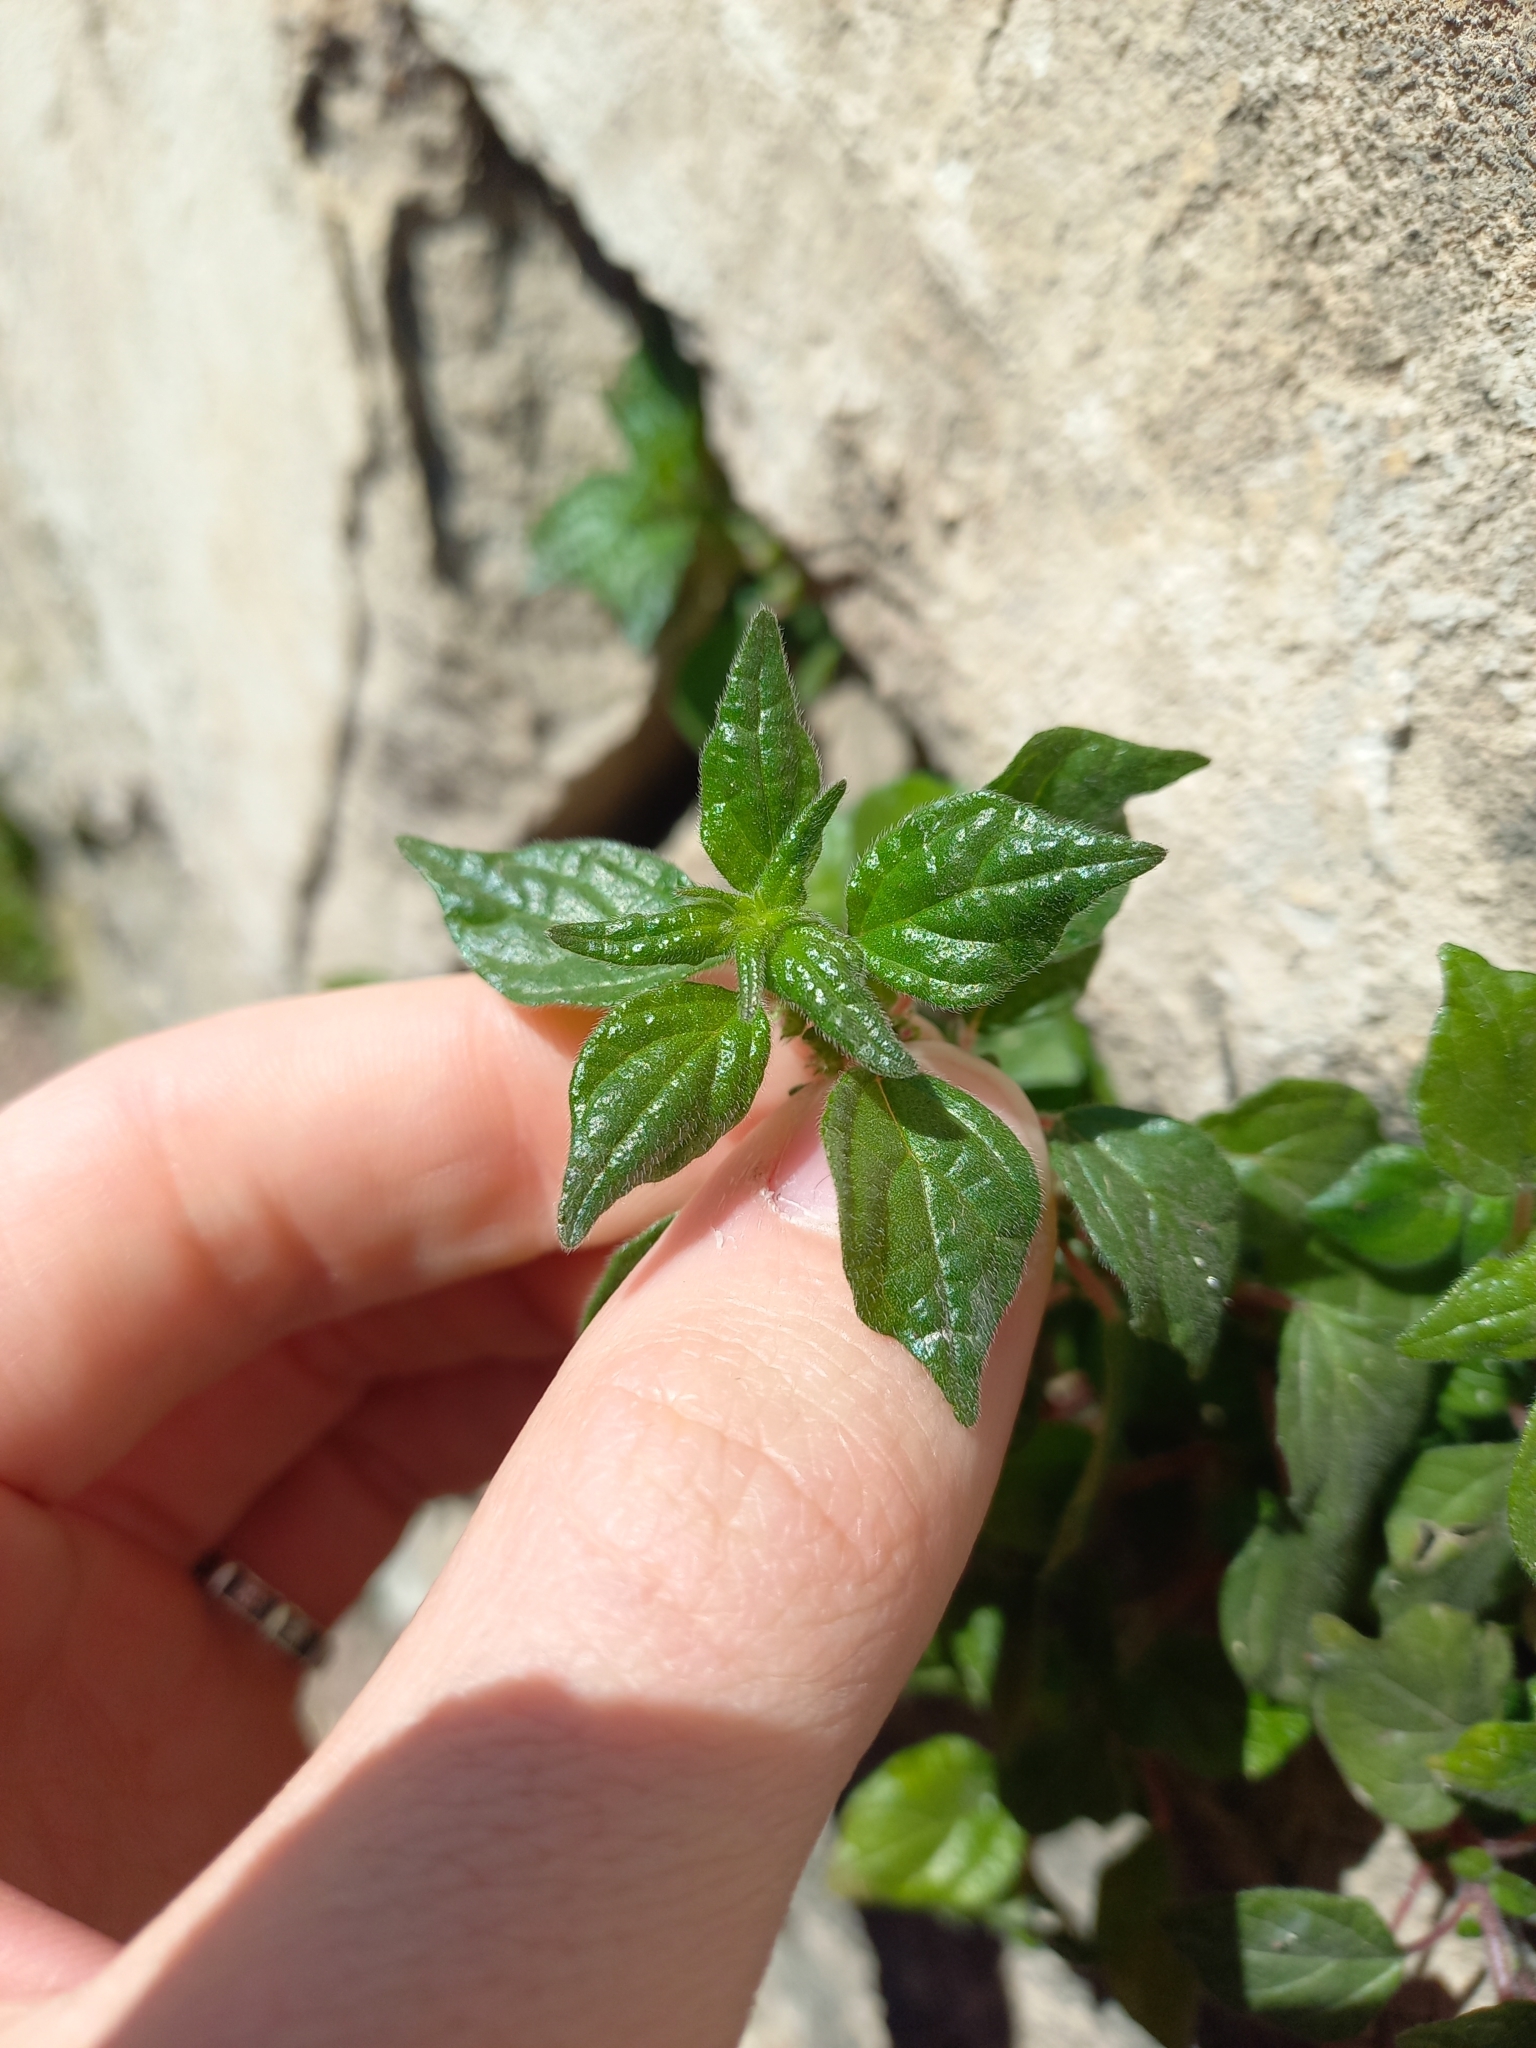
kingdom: Plantae
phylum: Tracheophyta
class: Magnoliopsida
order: Rosales
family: Urticaceae
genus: Parietaria
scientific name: Parietaria judaica
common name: Pellitory-of-the-wall
